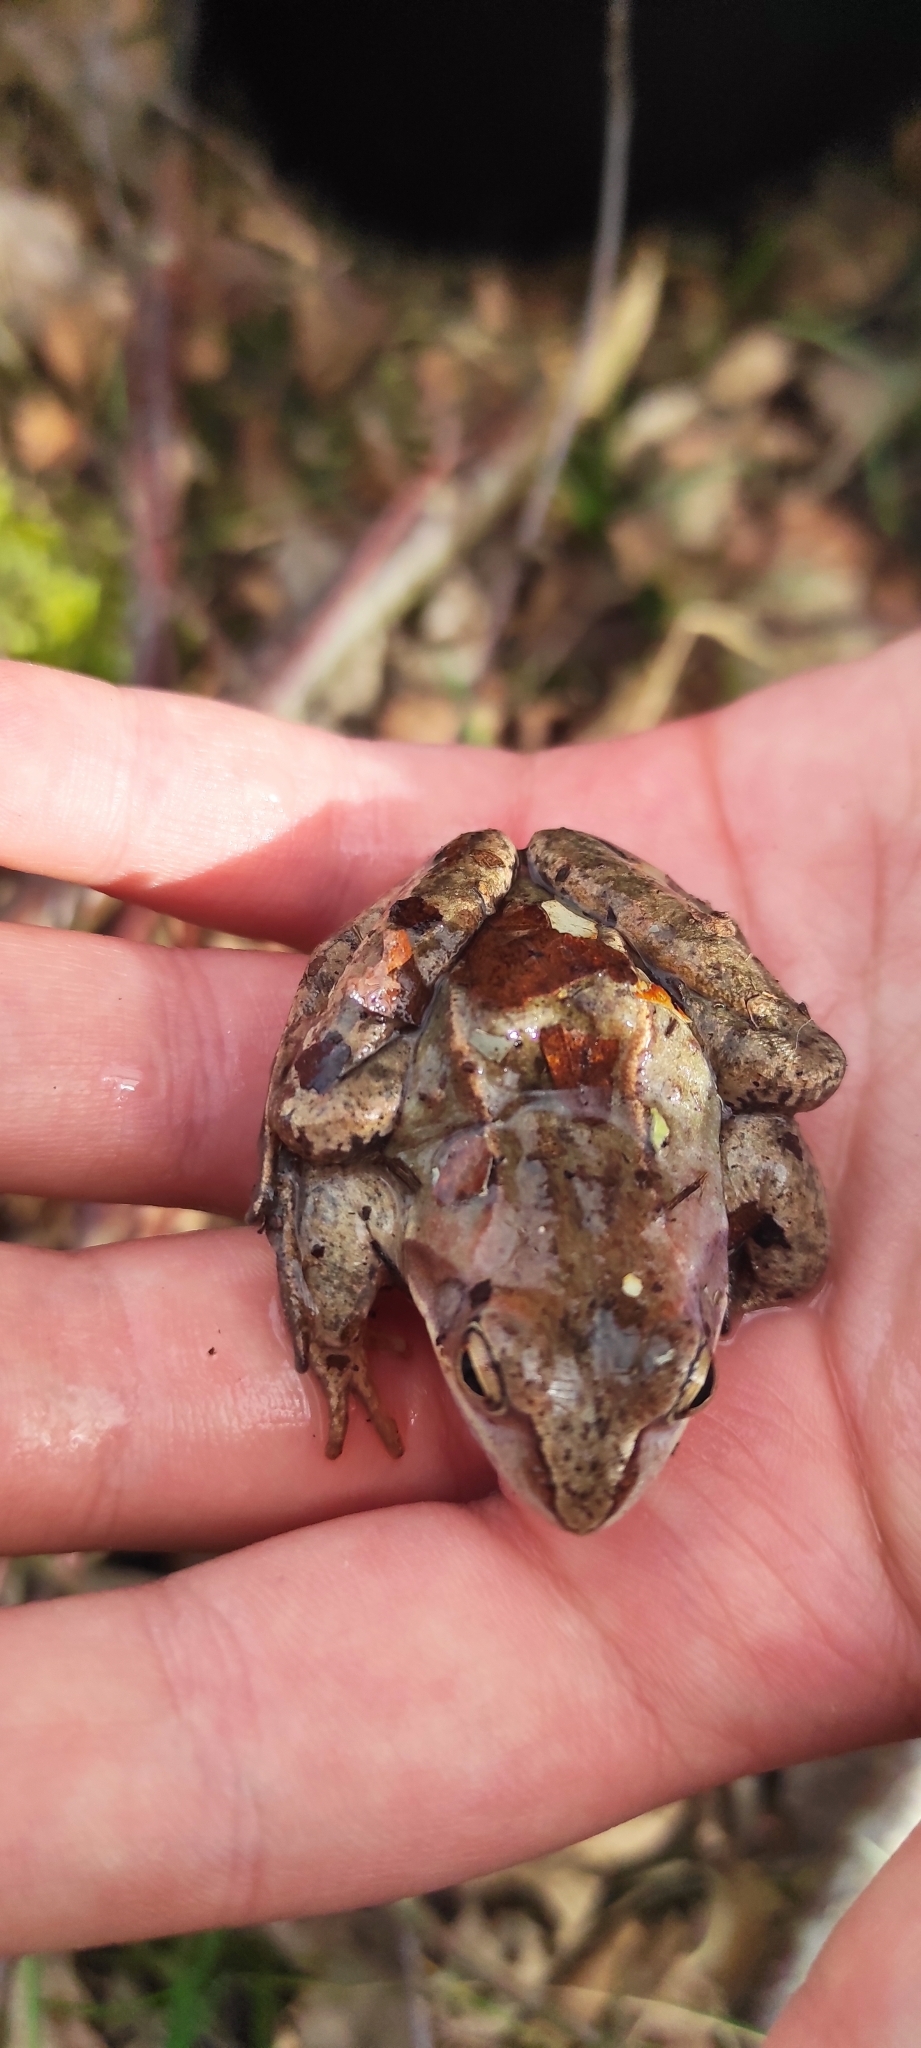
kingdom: Animalia
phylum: Chordata
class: Amphibia
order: Anura
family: Ranidae
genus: Rana
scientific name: Rana arvalis
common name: Moor frog
